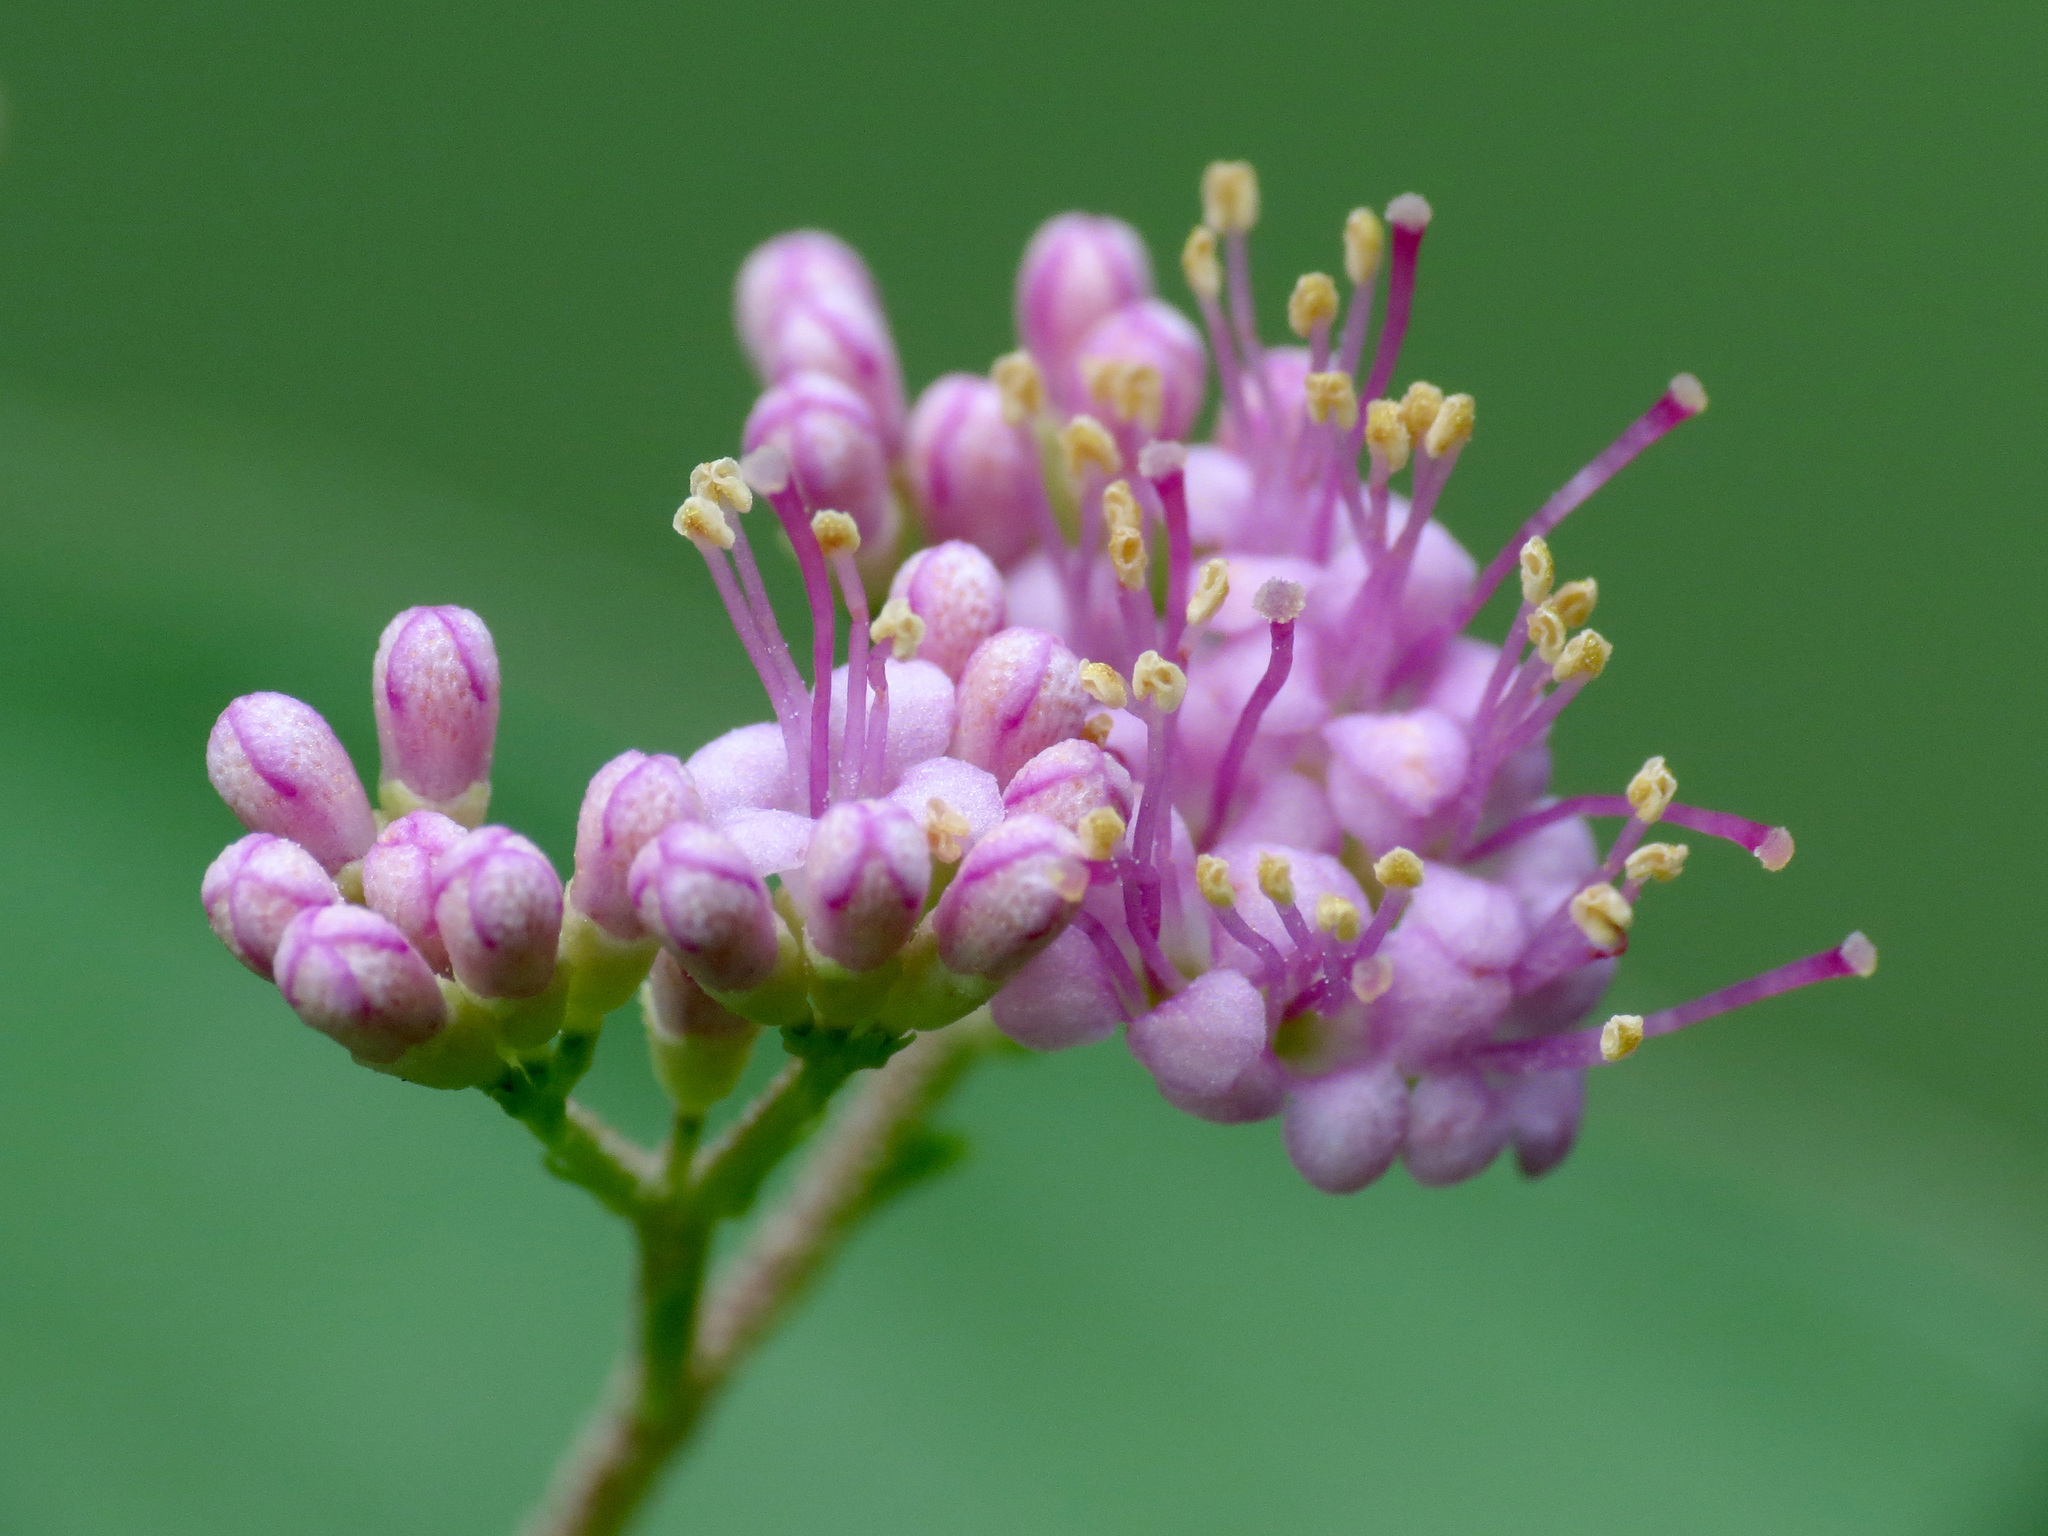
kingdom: Plantae
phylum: Tracheophyta
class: Magnoliopsida
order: Lamiales
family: Lamiaceae
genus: Callicarpa
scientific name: Callicarpa dichotoma
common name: Purple beauty-berry
